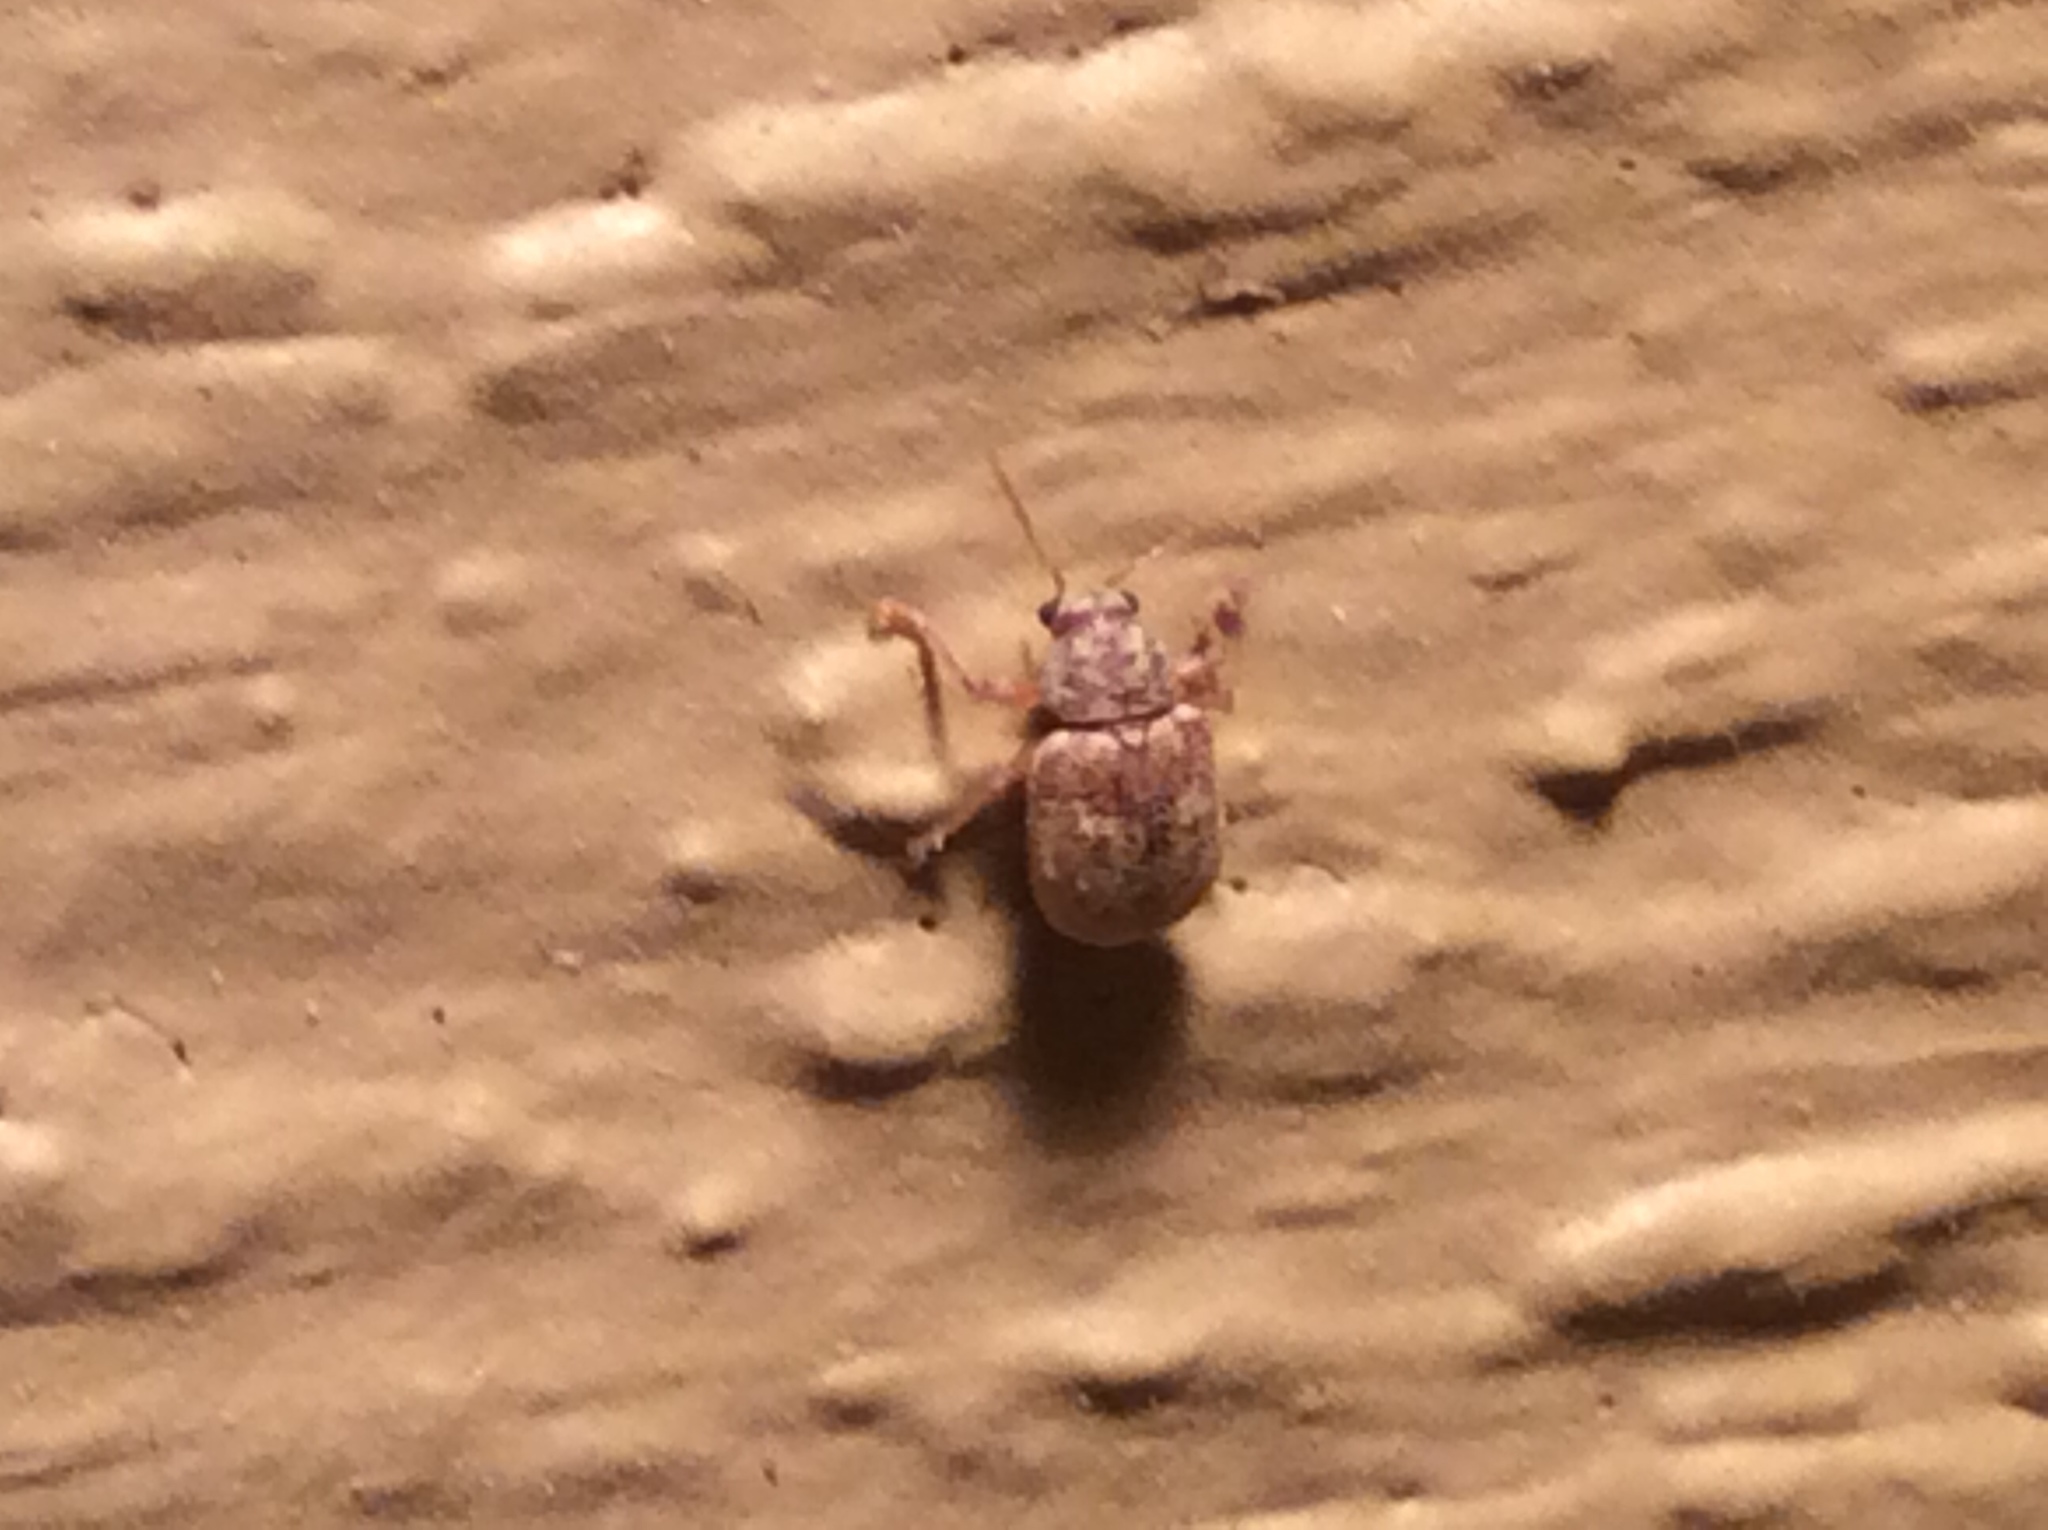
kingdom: Animalia
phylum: Arthropoda
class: Insecta
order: Coleoptera
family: Chrysomelidae
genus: Demotina
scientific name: Demotina modesta
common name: Leaf beetle
